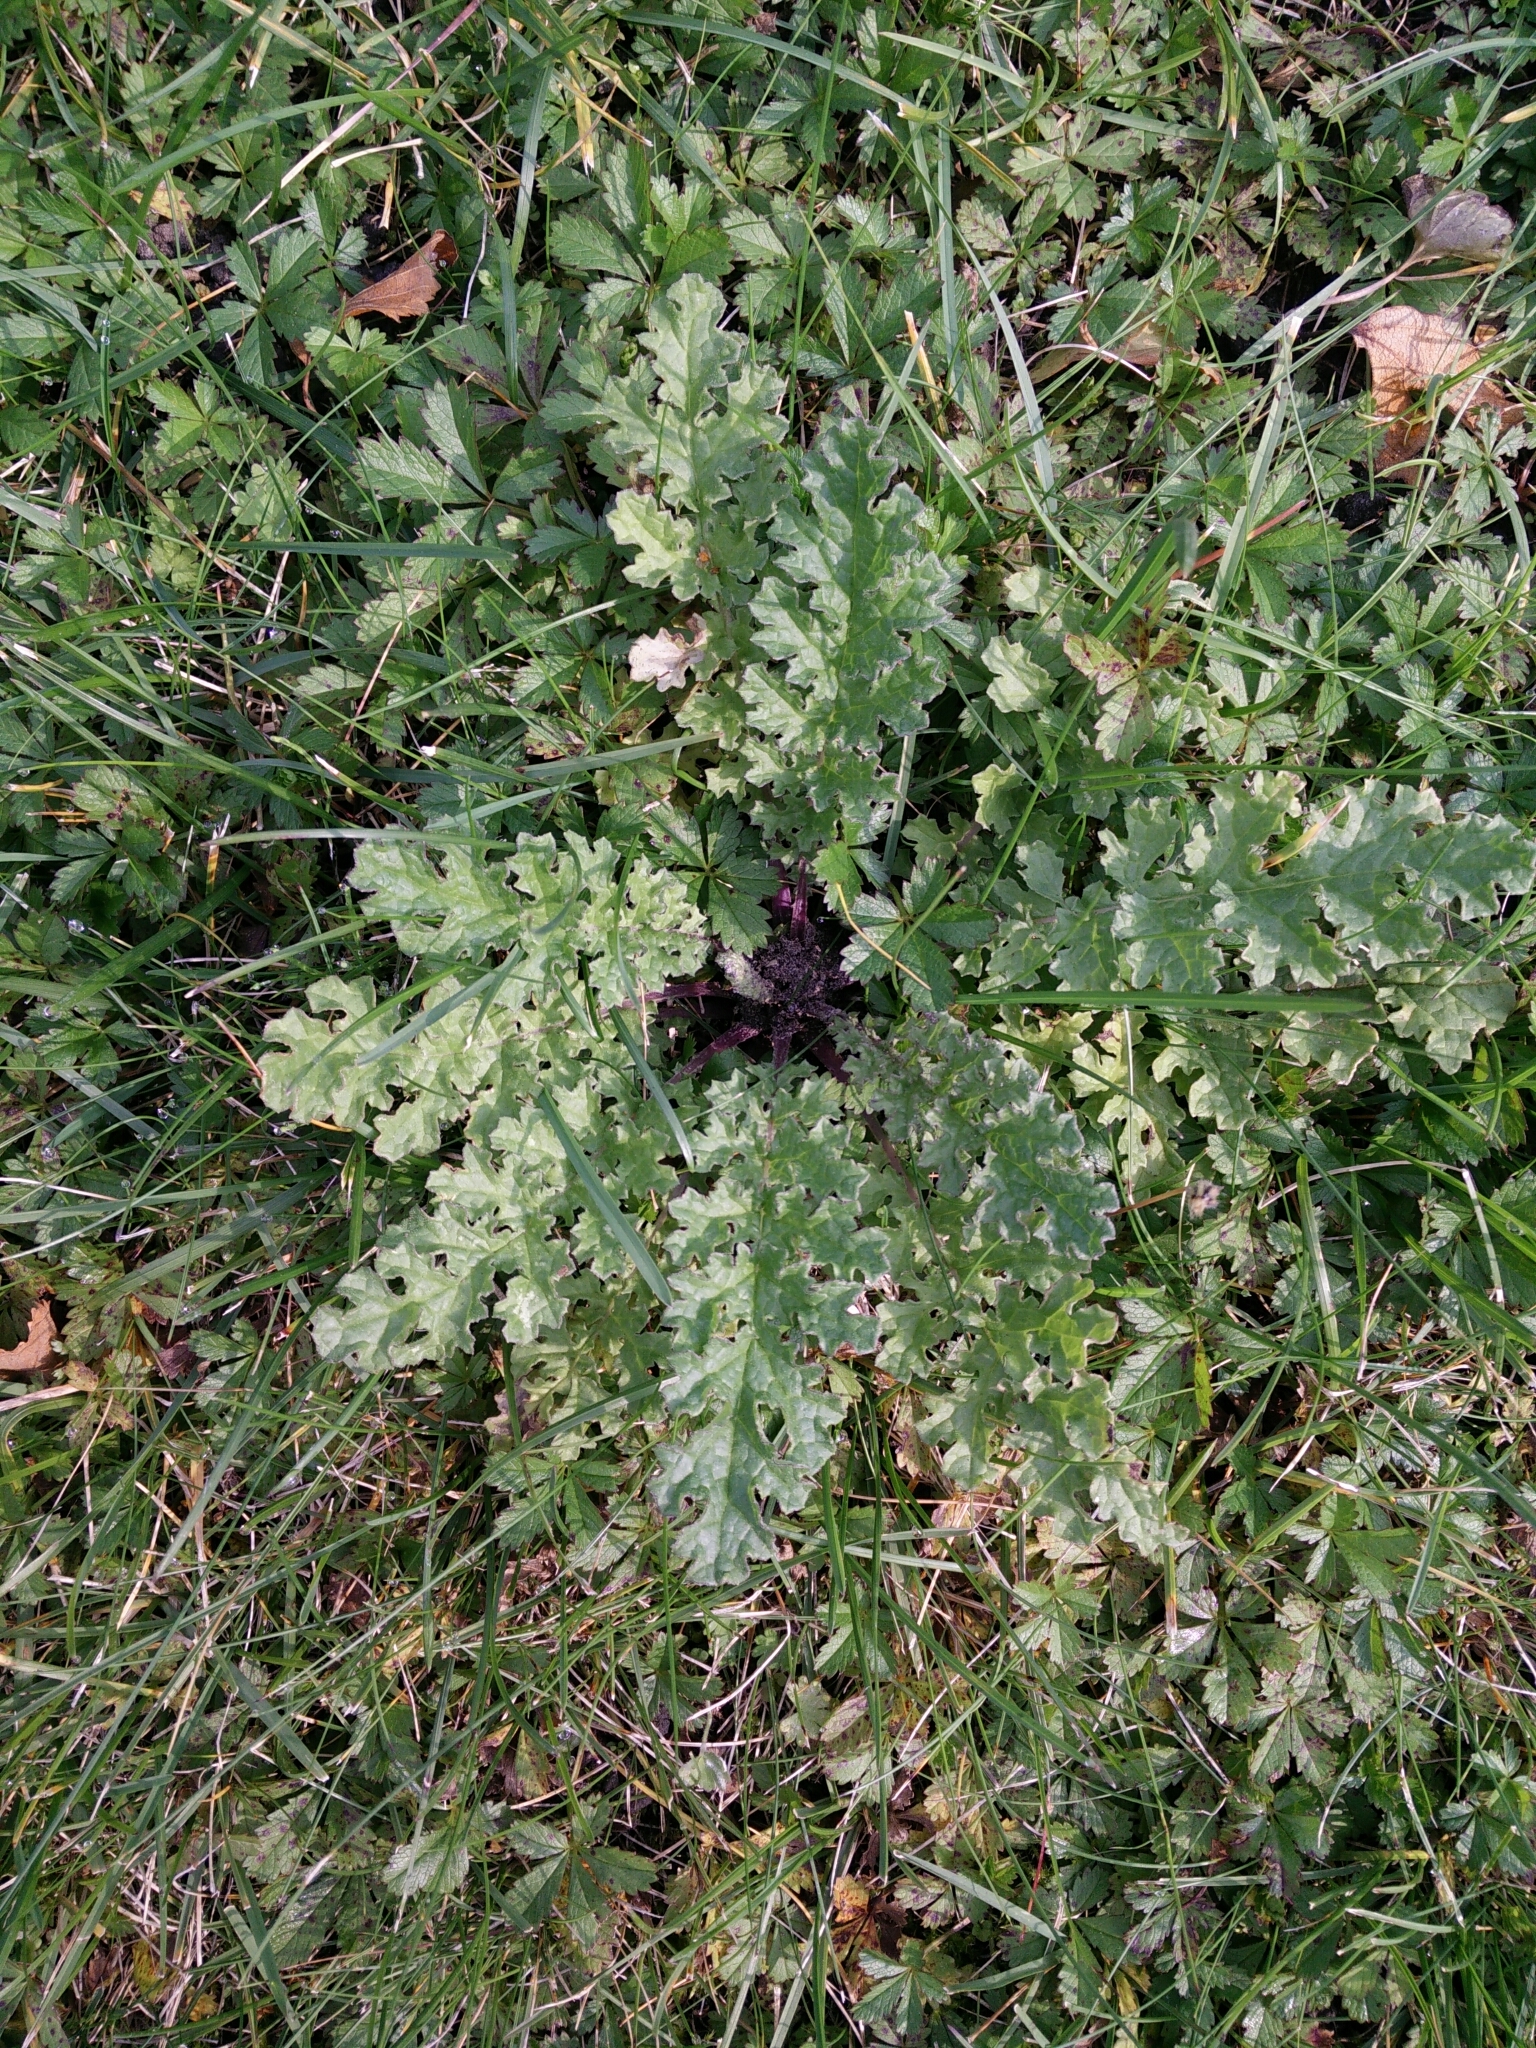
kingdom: Plantae
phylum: Tracheophyta
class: Magnoliopsida
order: Asterales
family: Asteraceae
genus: Jacobaea
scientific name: Jacobaea vulgaris
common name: Stinking willie
